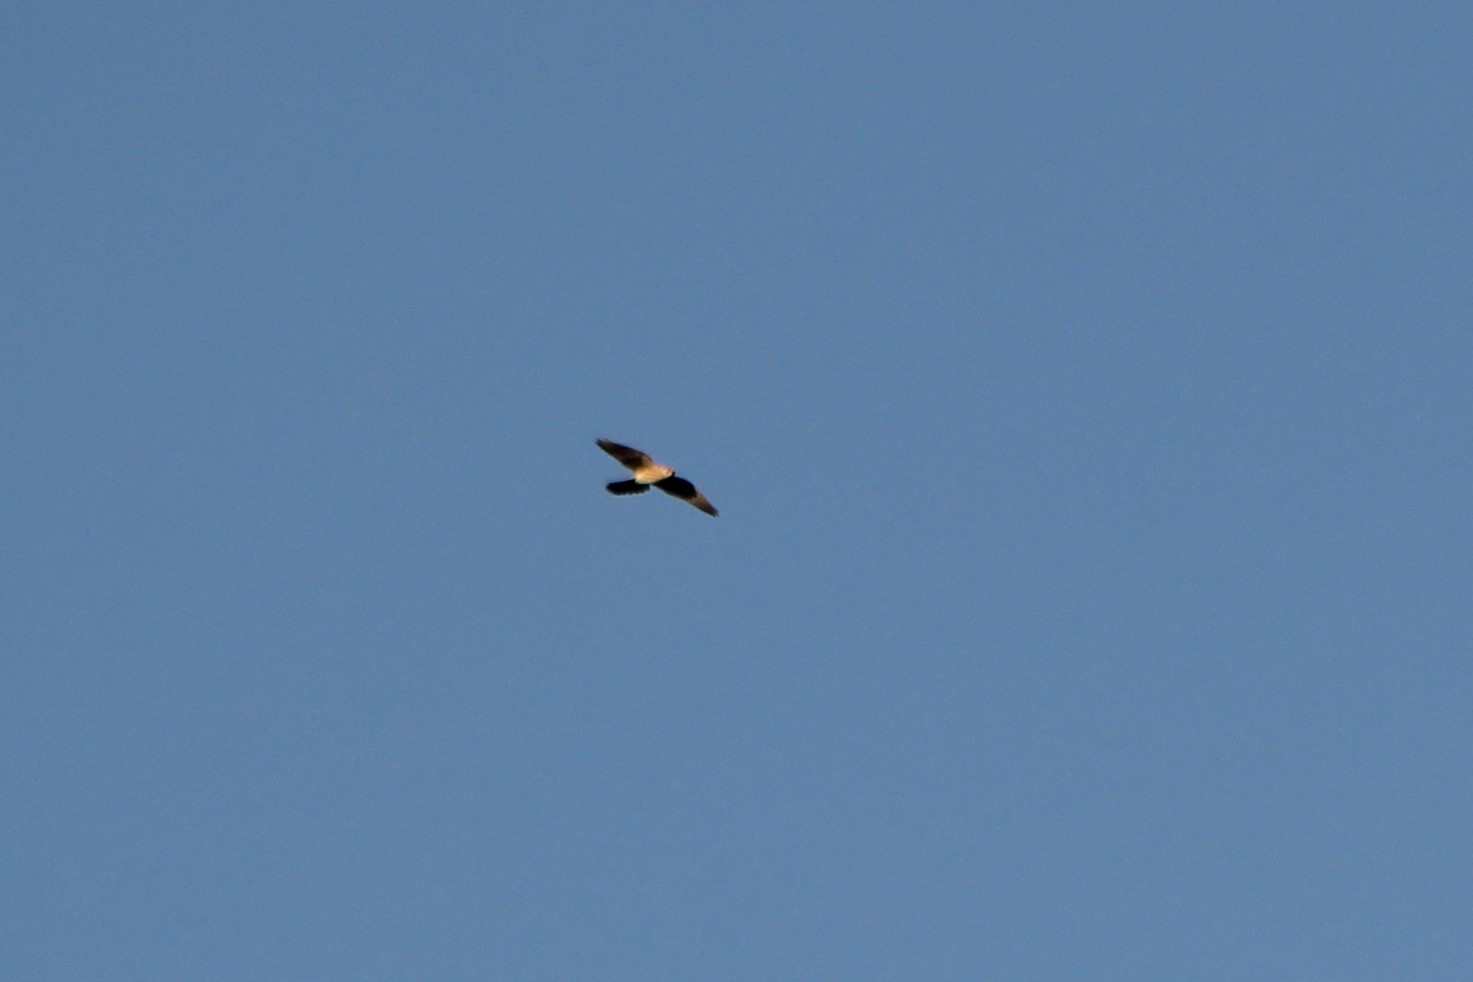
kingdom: Animalia
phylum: Chordata
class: Aves
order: Falconiformes
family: Falconidae
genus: Falco
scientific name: Falco sparverius
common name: American kestrel
